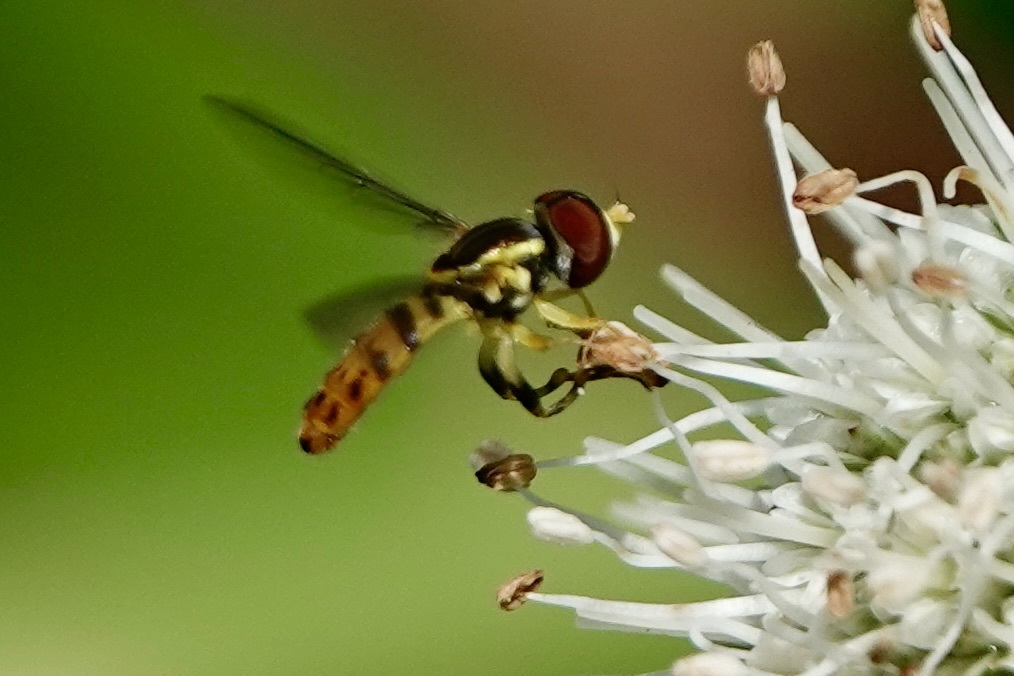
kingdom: Animalia
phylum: Arthropoda
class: Insecta
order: Diptera
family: Syrphidae
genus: Toxomerus
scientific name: Toxomerus geminatus
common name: Eastern calligrapher
